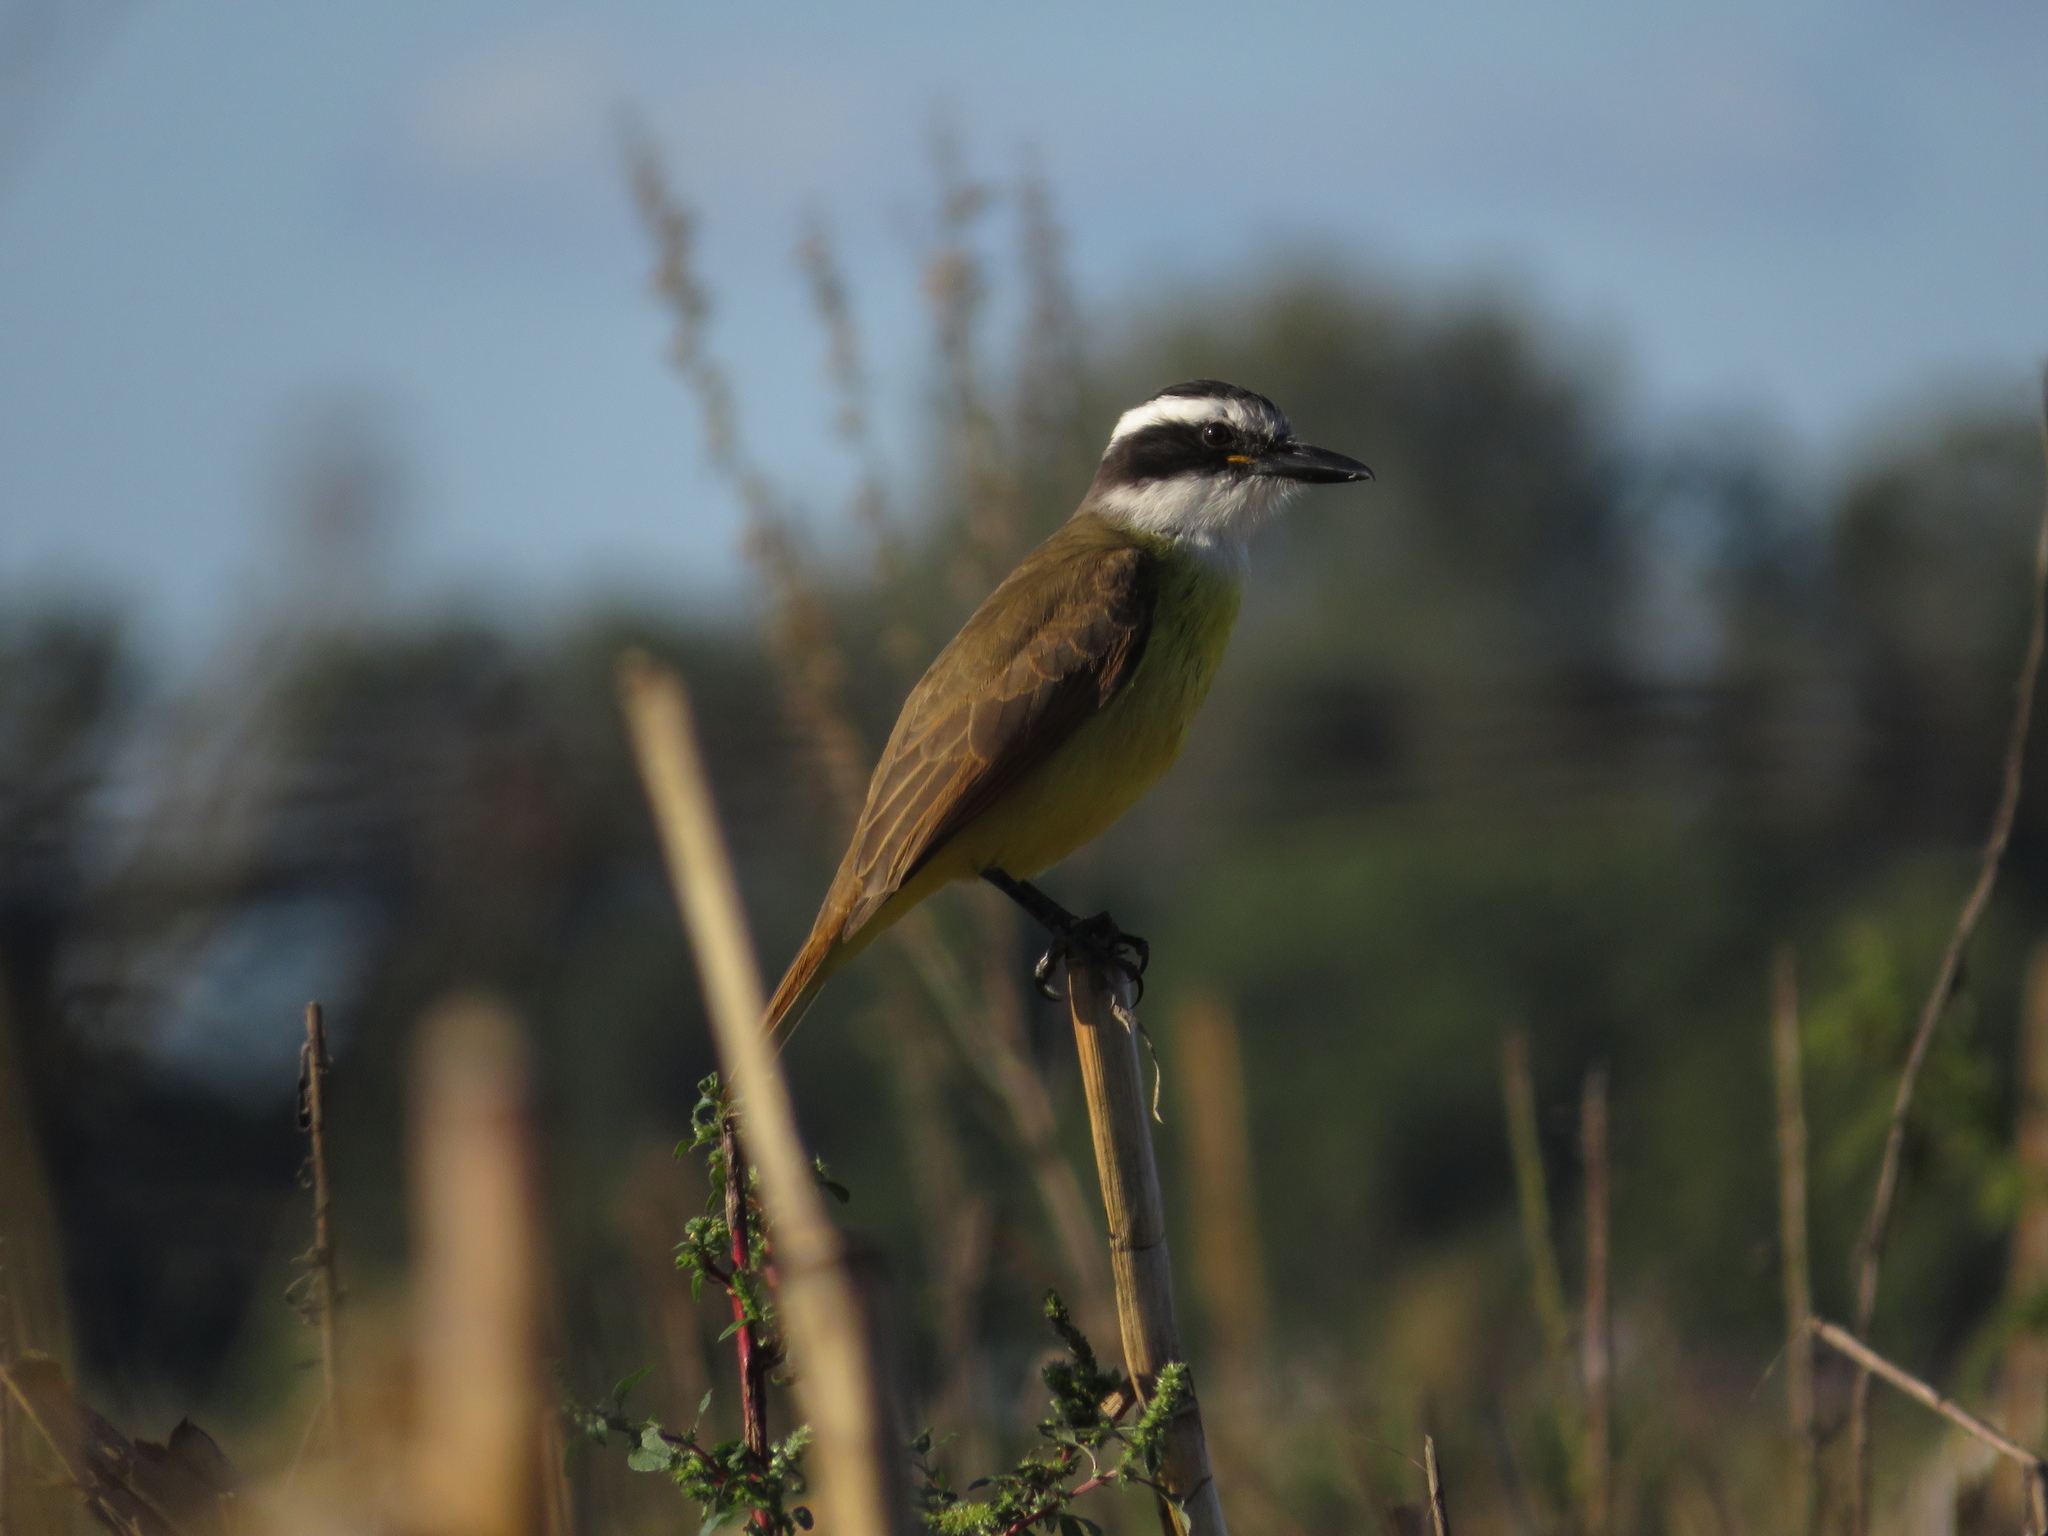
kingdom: Animalia
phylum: Chordata
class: Aves
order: Passeriformes
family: Tyrannidae
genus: Pitangus
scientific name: Pitangus sulphuratus
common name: Great kiskadee
